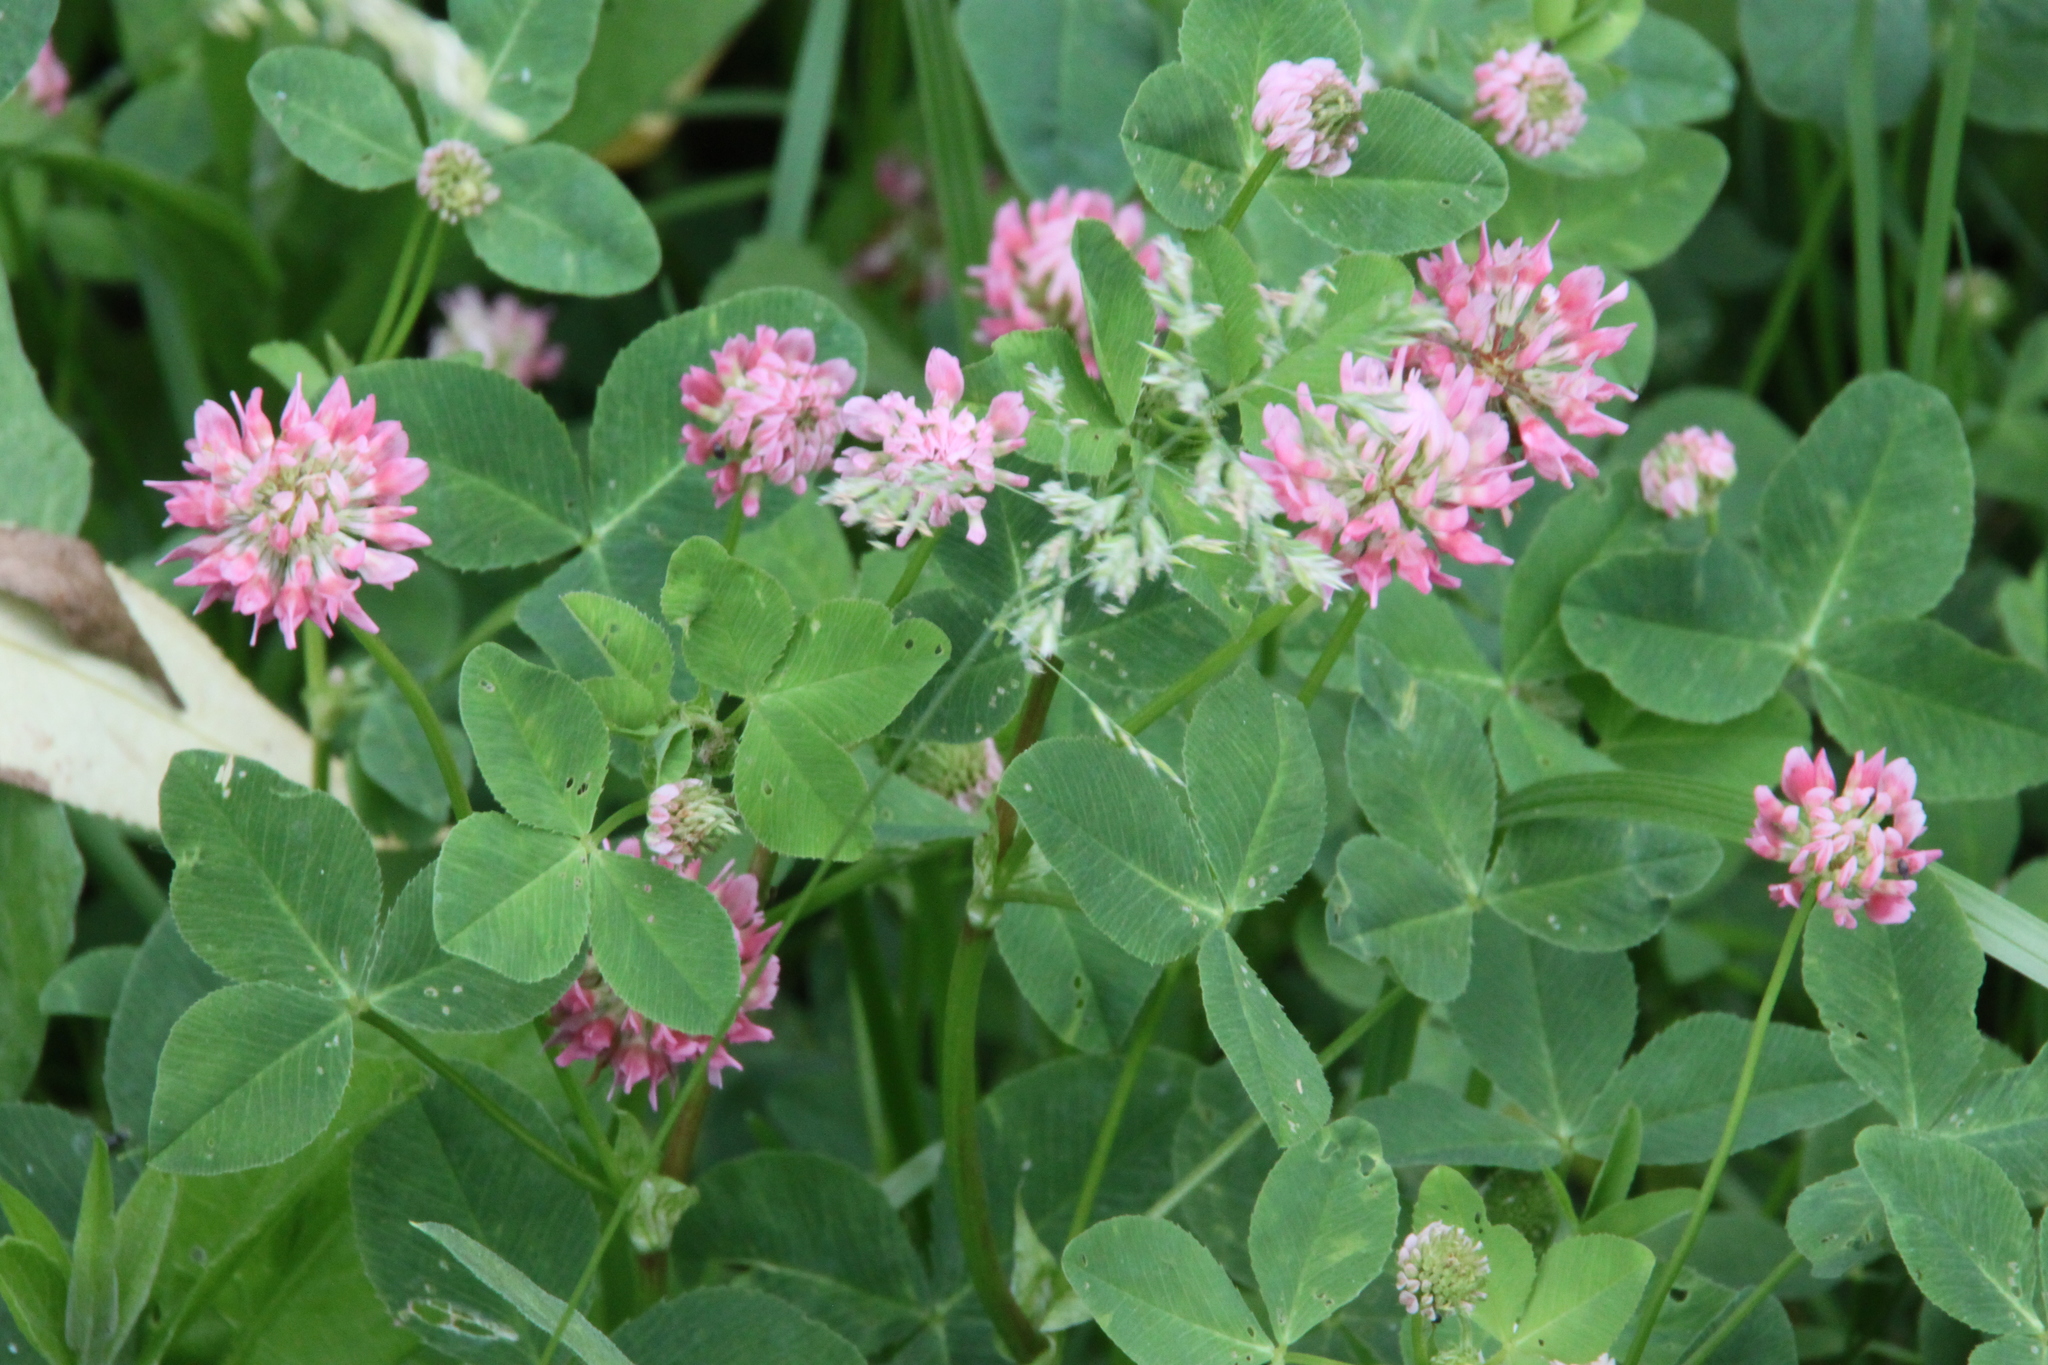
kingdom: Plantae
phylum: Tracheophyta
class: Magnoliopsida
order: Fabales
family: Fabaceae
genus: Trifolium
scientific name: Trifolium hybridum
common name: Alsike clover
